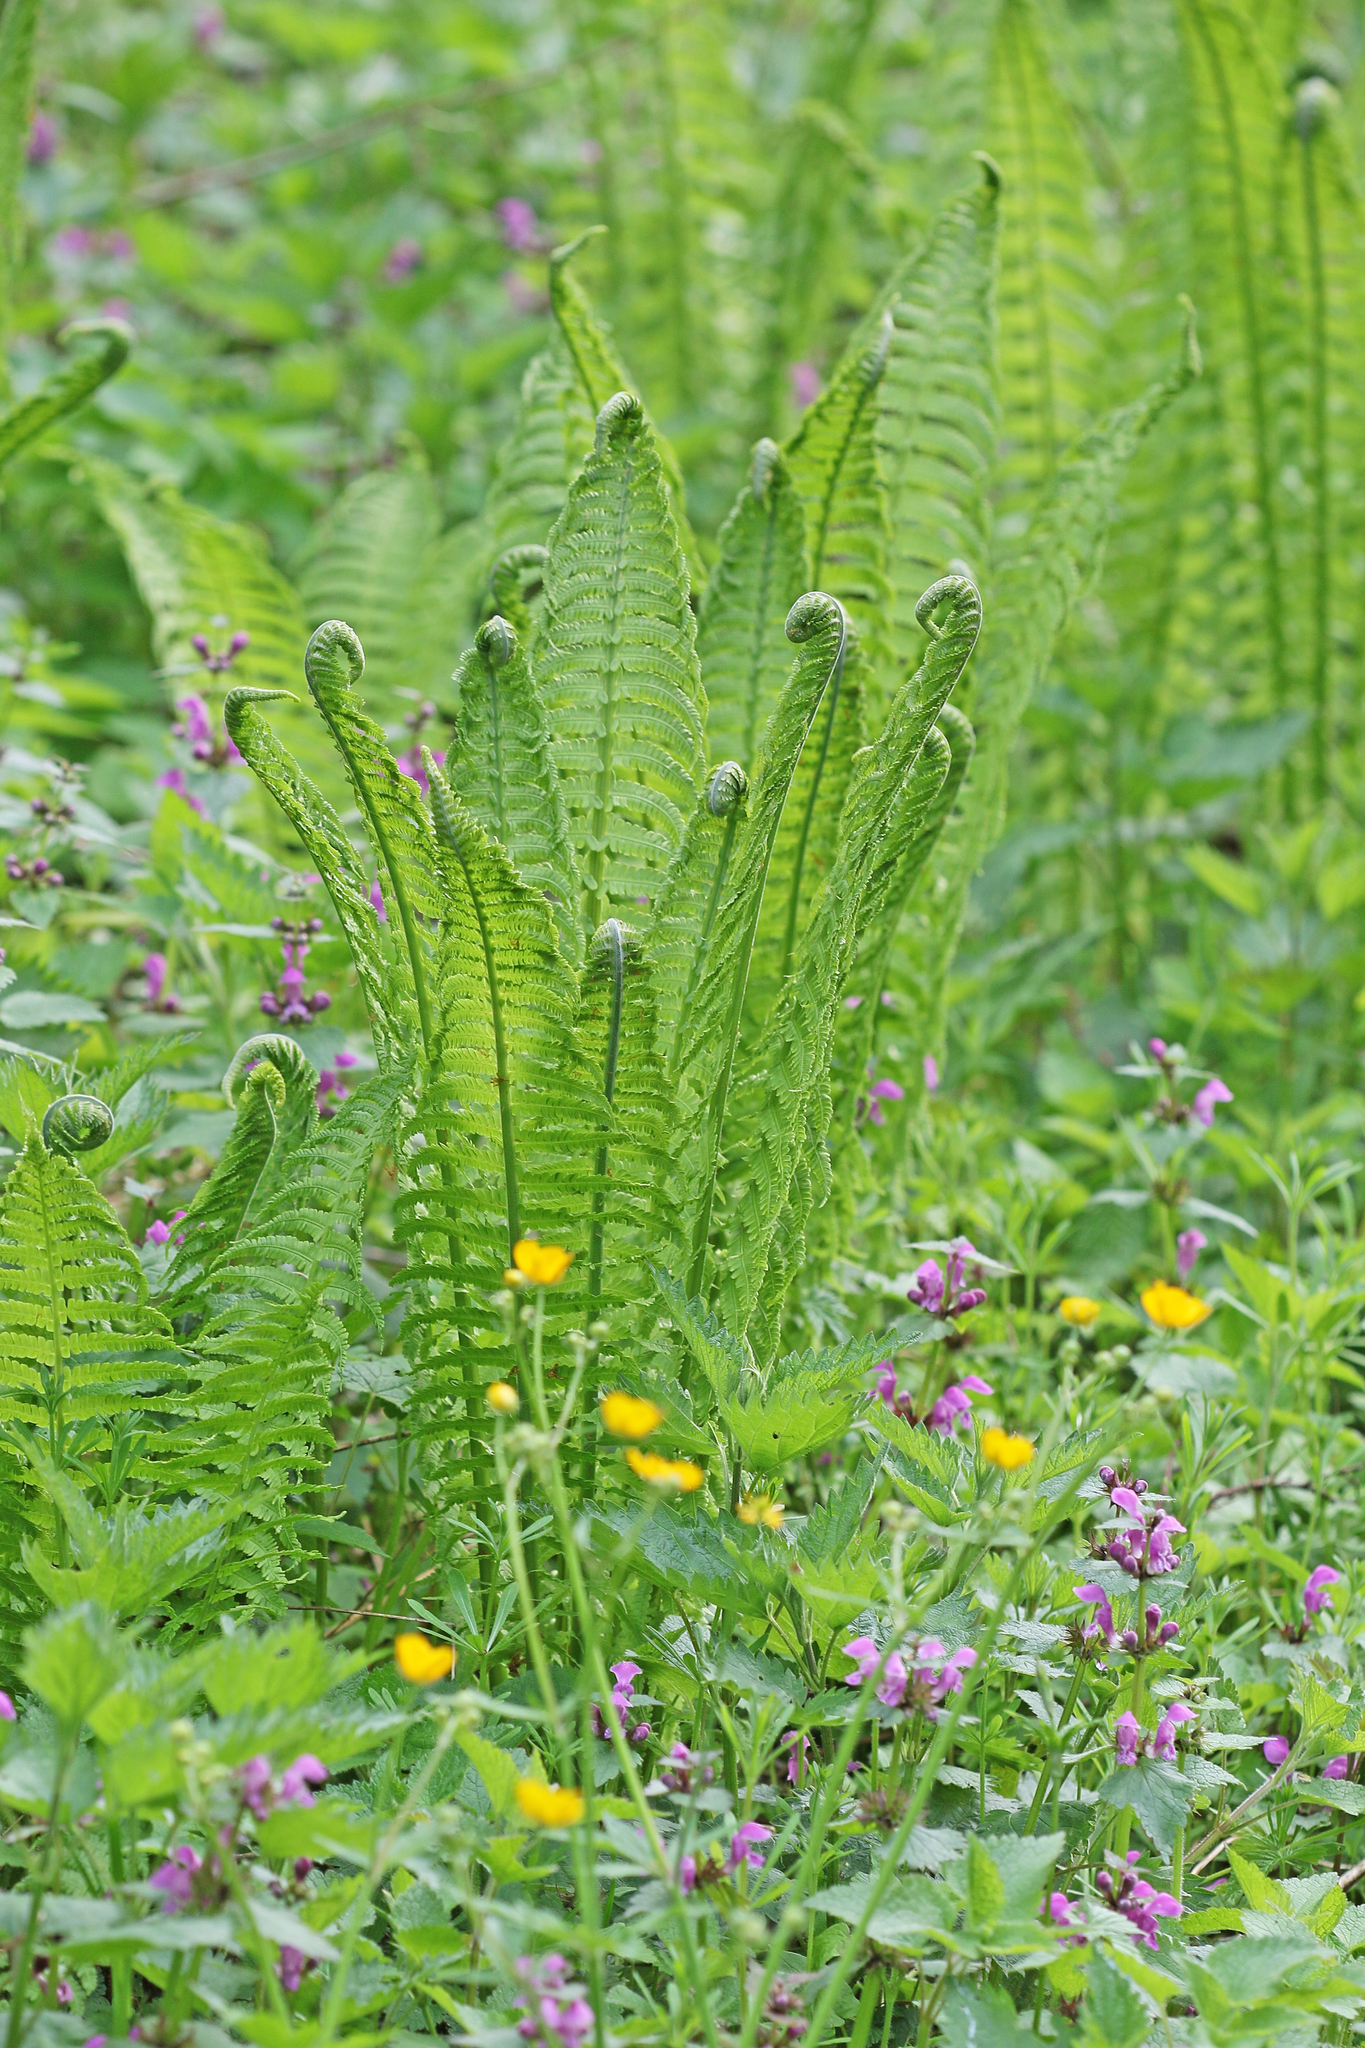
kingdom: Plantae
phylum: Tracheophyta
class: Polypodiopsida
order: Polypodiales
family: Onocleaceae
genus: Matteuccia
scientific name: Matteuccia struthiopteris
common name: Ostrich fern
